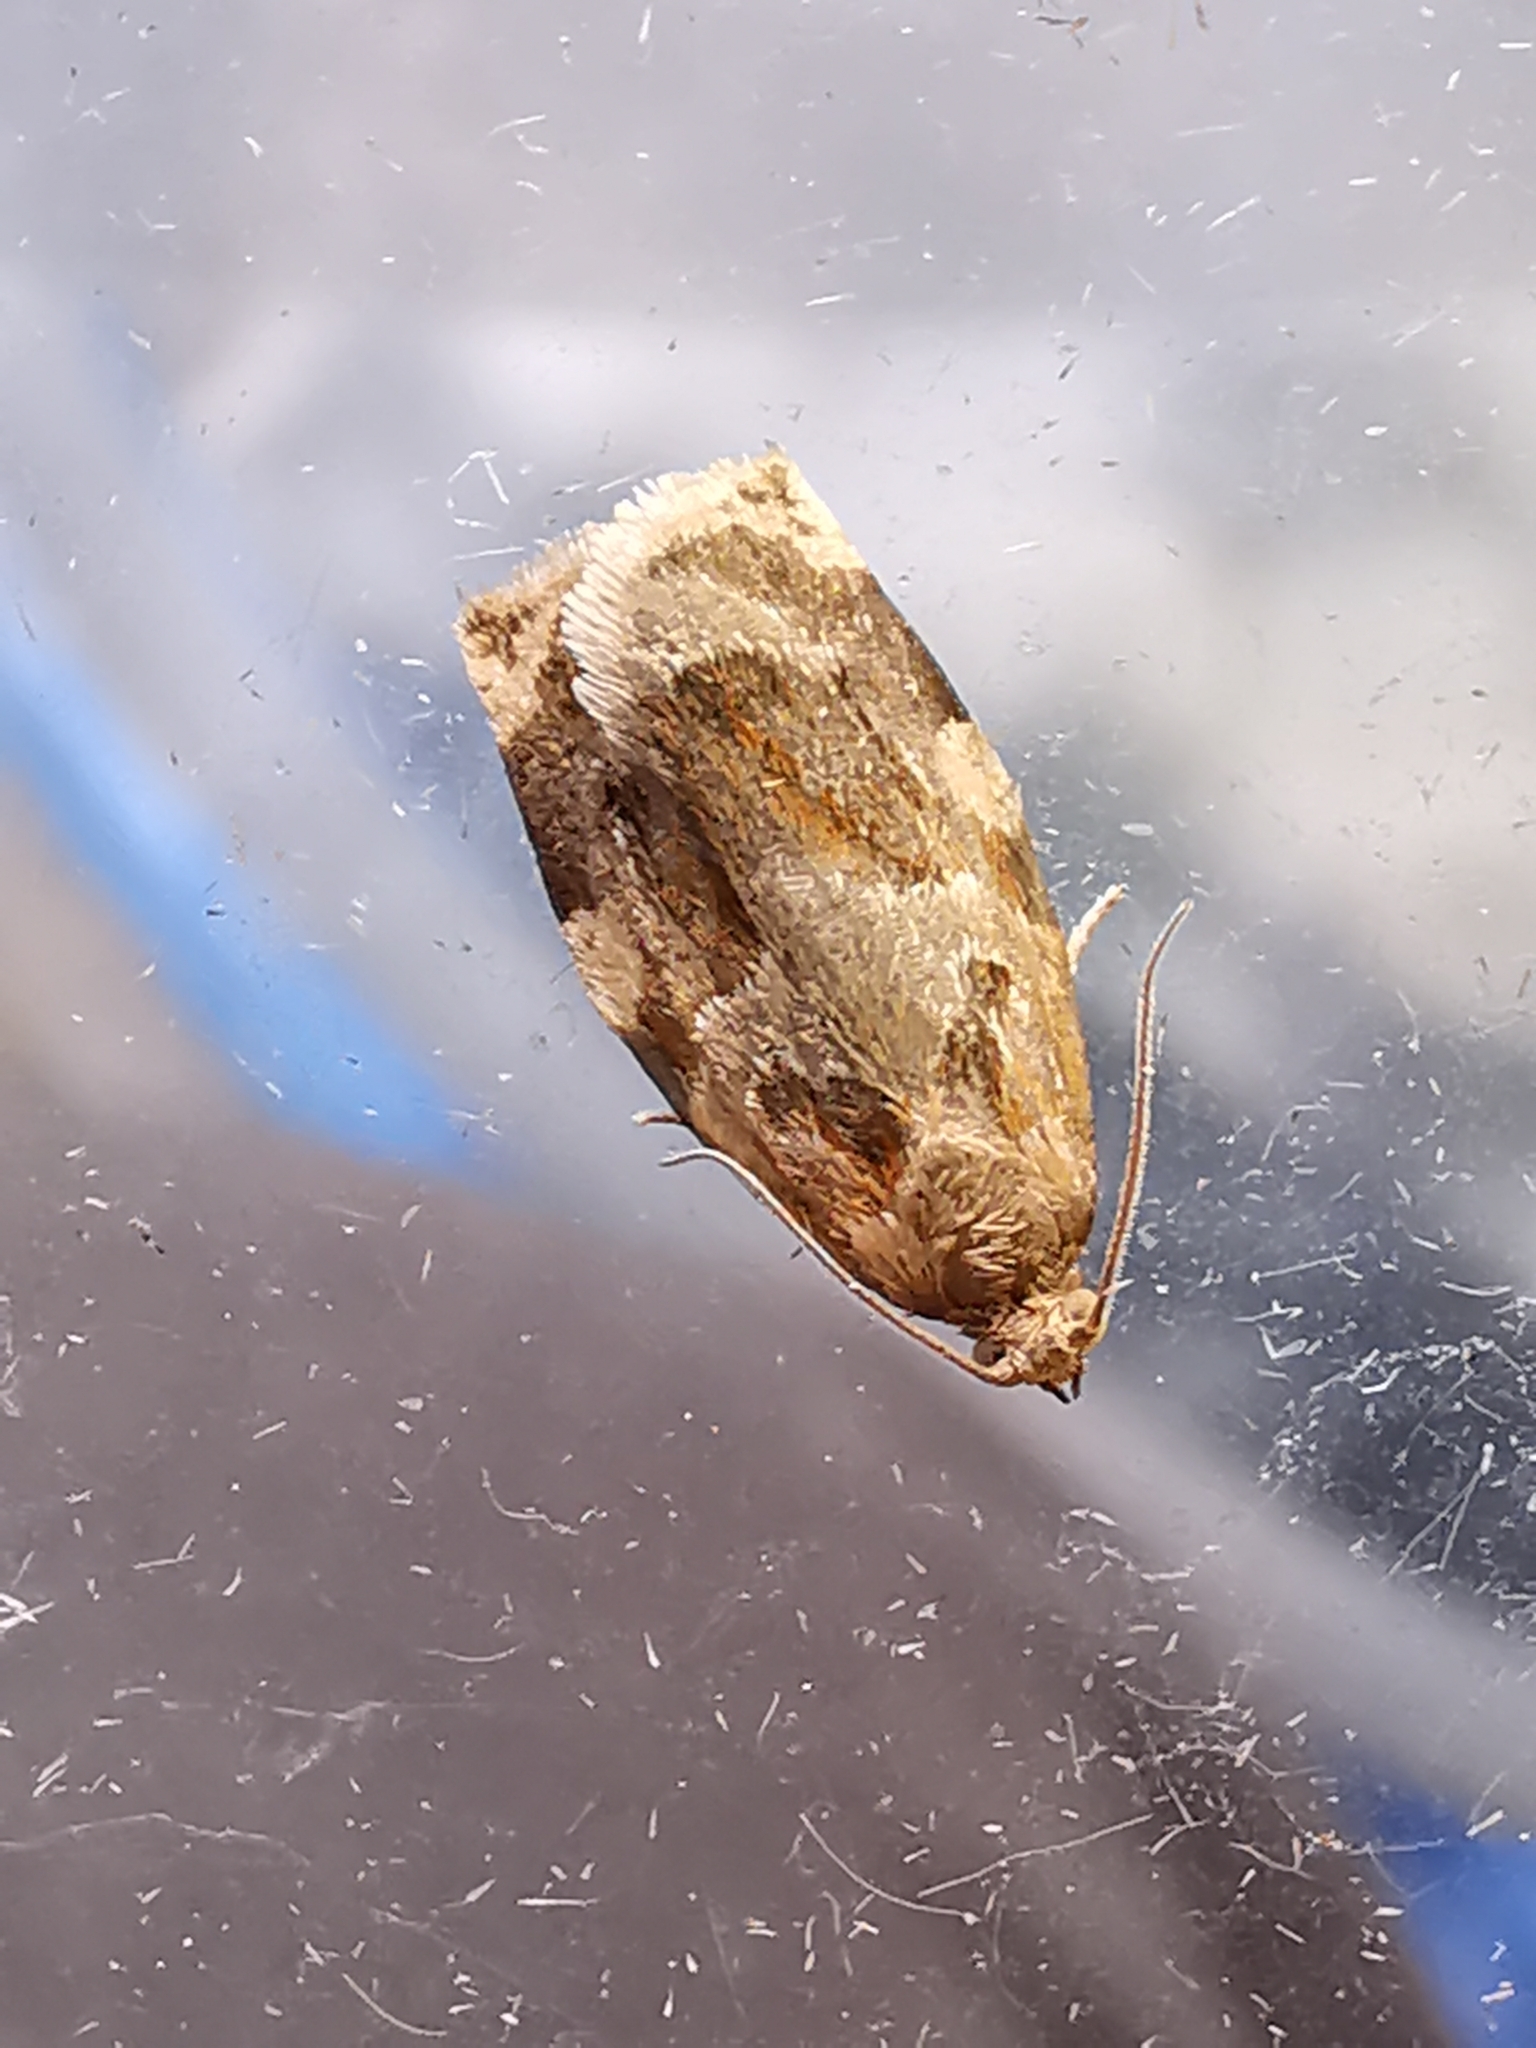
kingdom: Animalia
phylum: Arthropoda
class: Insecta
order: Lepidoptera
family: Tortricidae
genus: Archips
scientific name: Archips xylosteana
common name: Variegated golden tortrix
